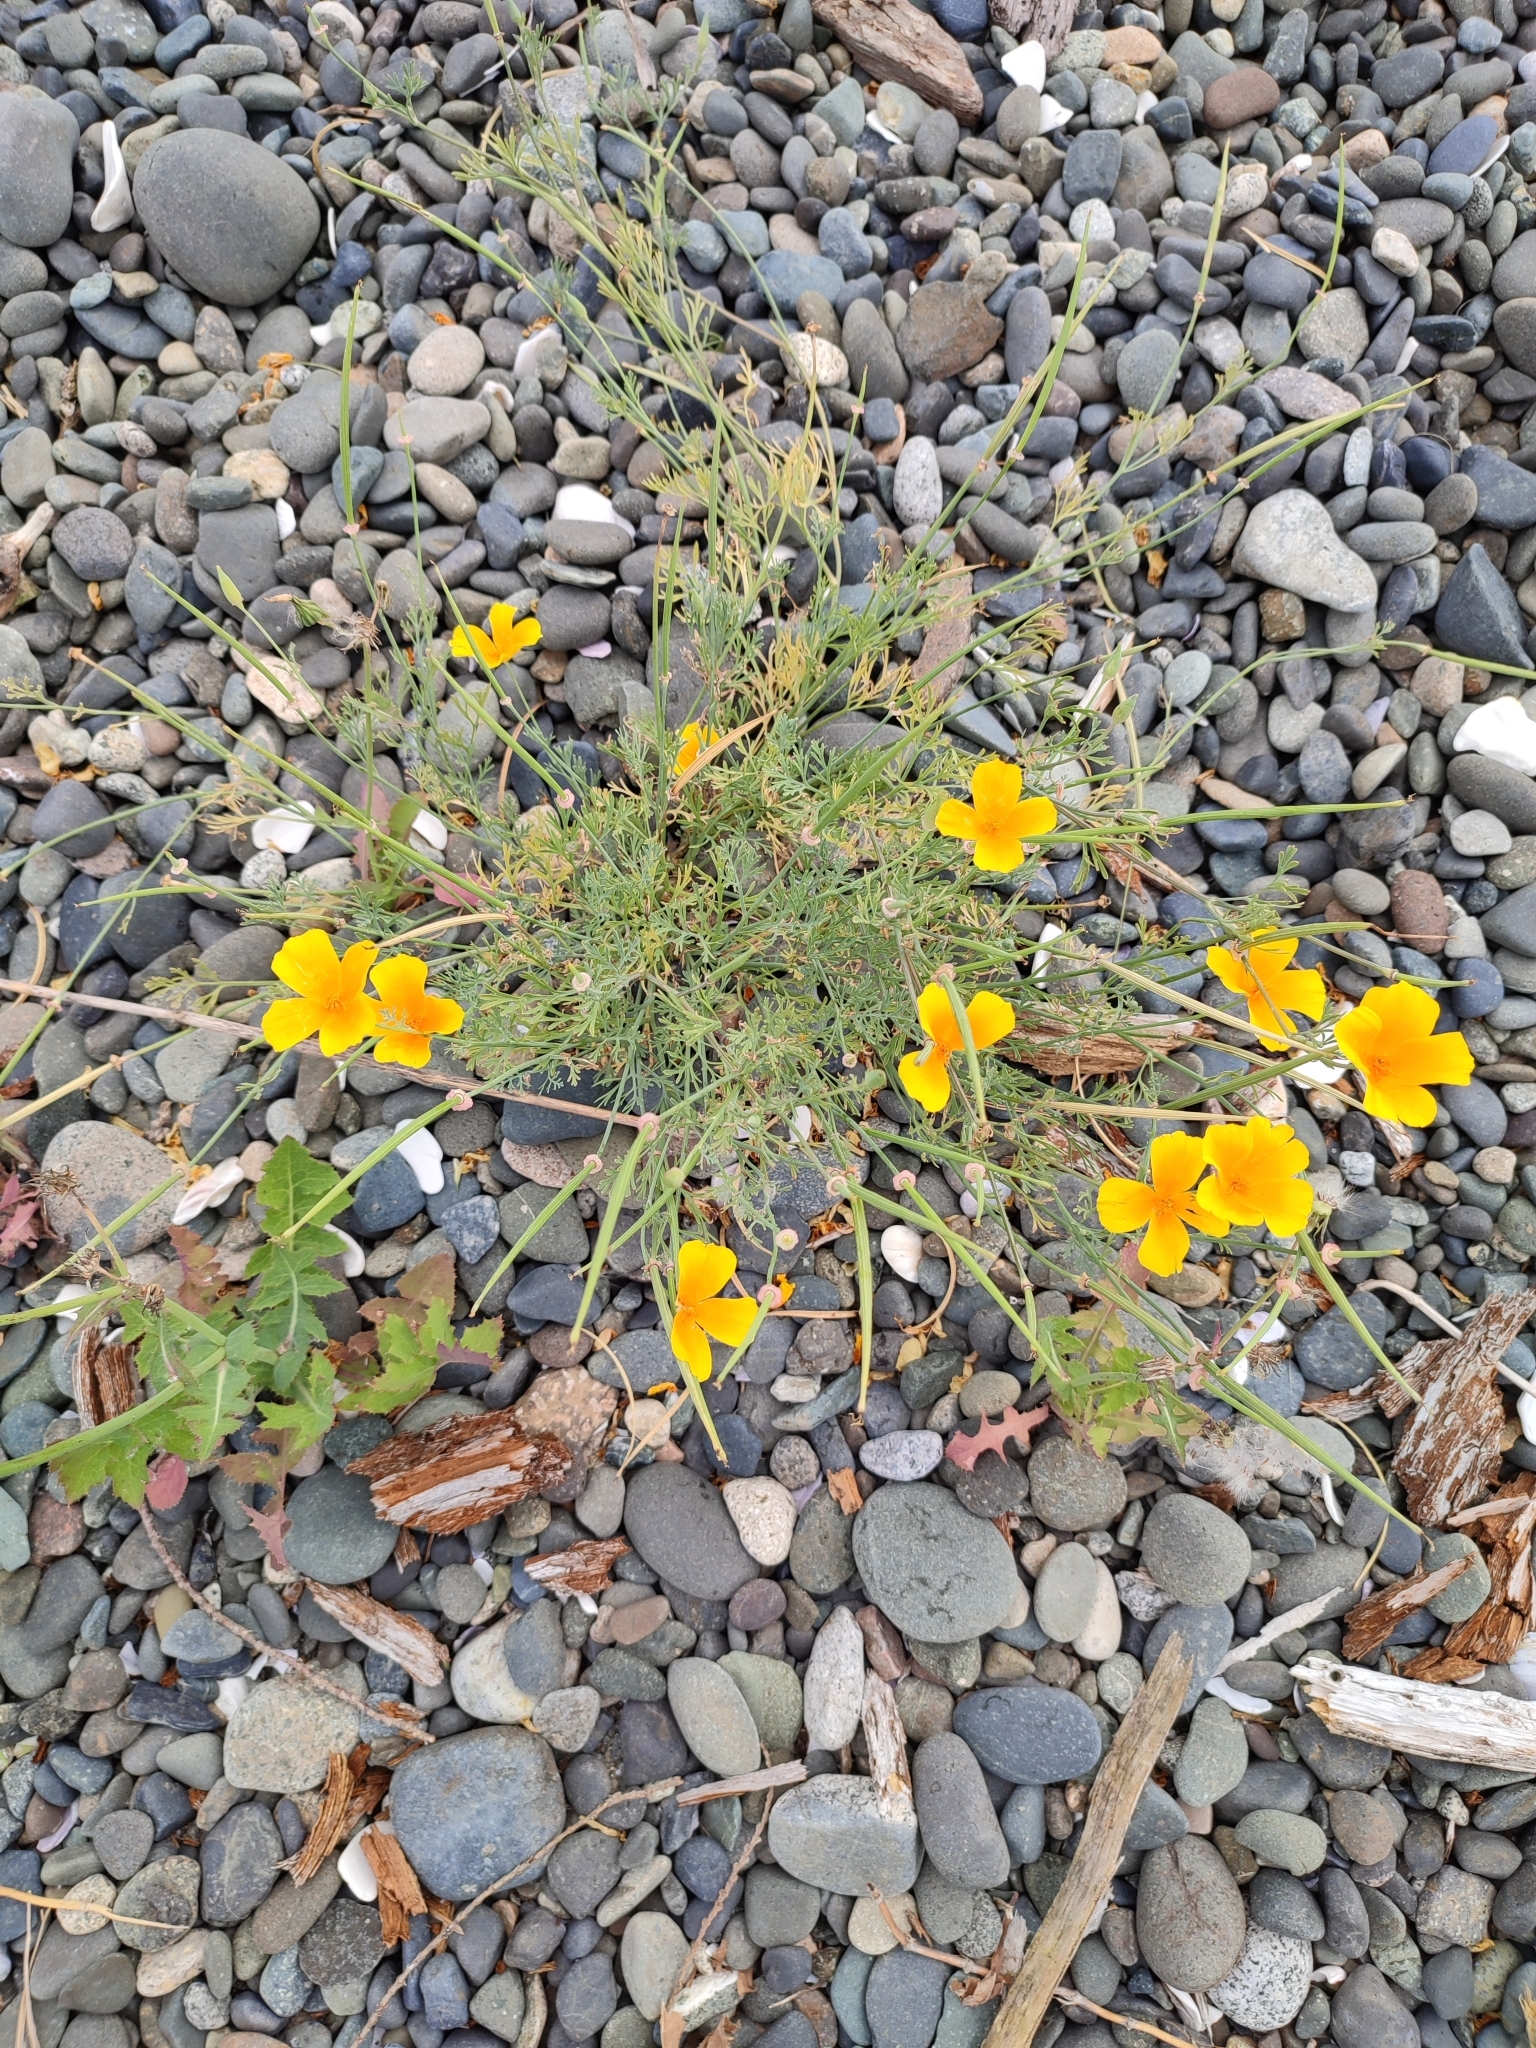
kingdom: Plantae
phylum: Tracheophyta
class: Magnoliopsida
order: Ranunculales
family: Papaveraceae
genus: Eschscholzia
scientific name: Eschscholzia californica
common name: California poppy
